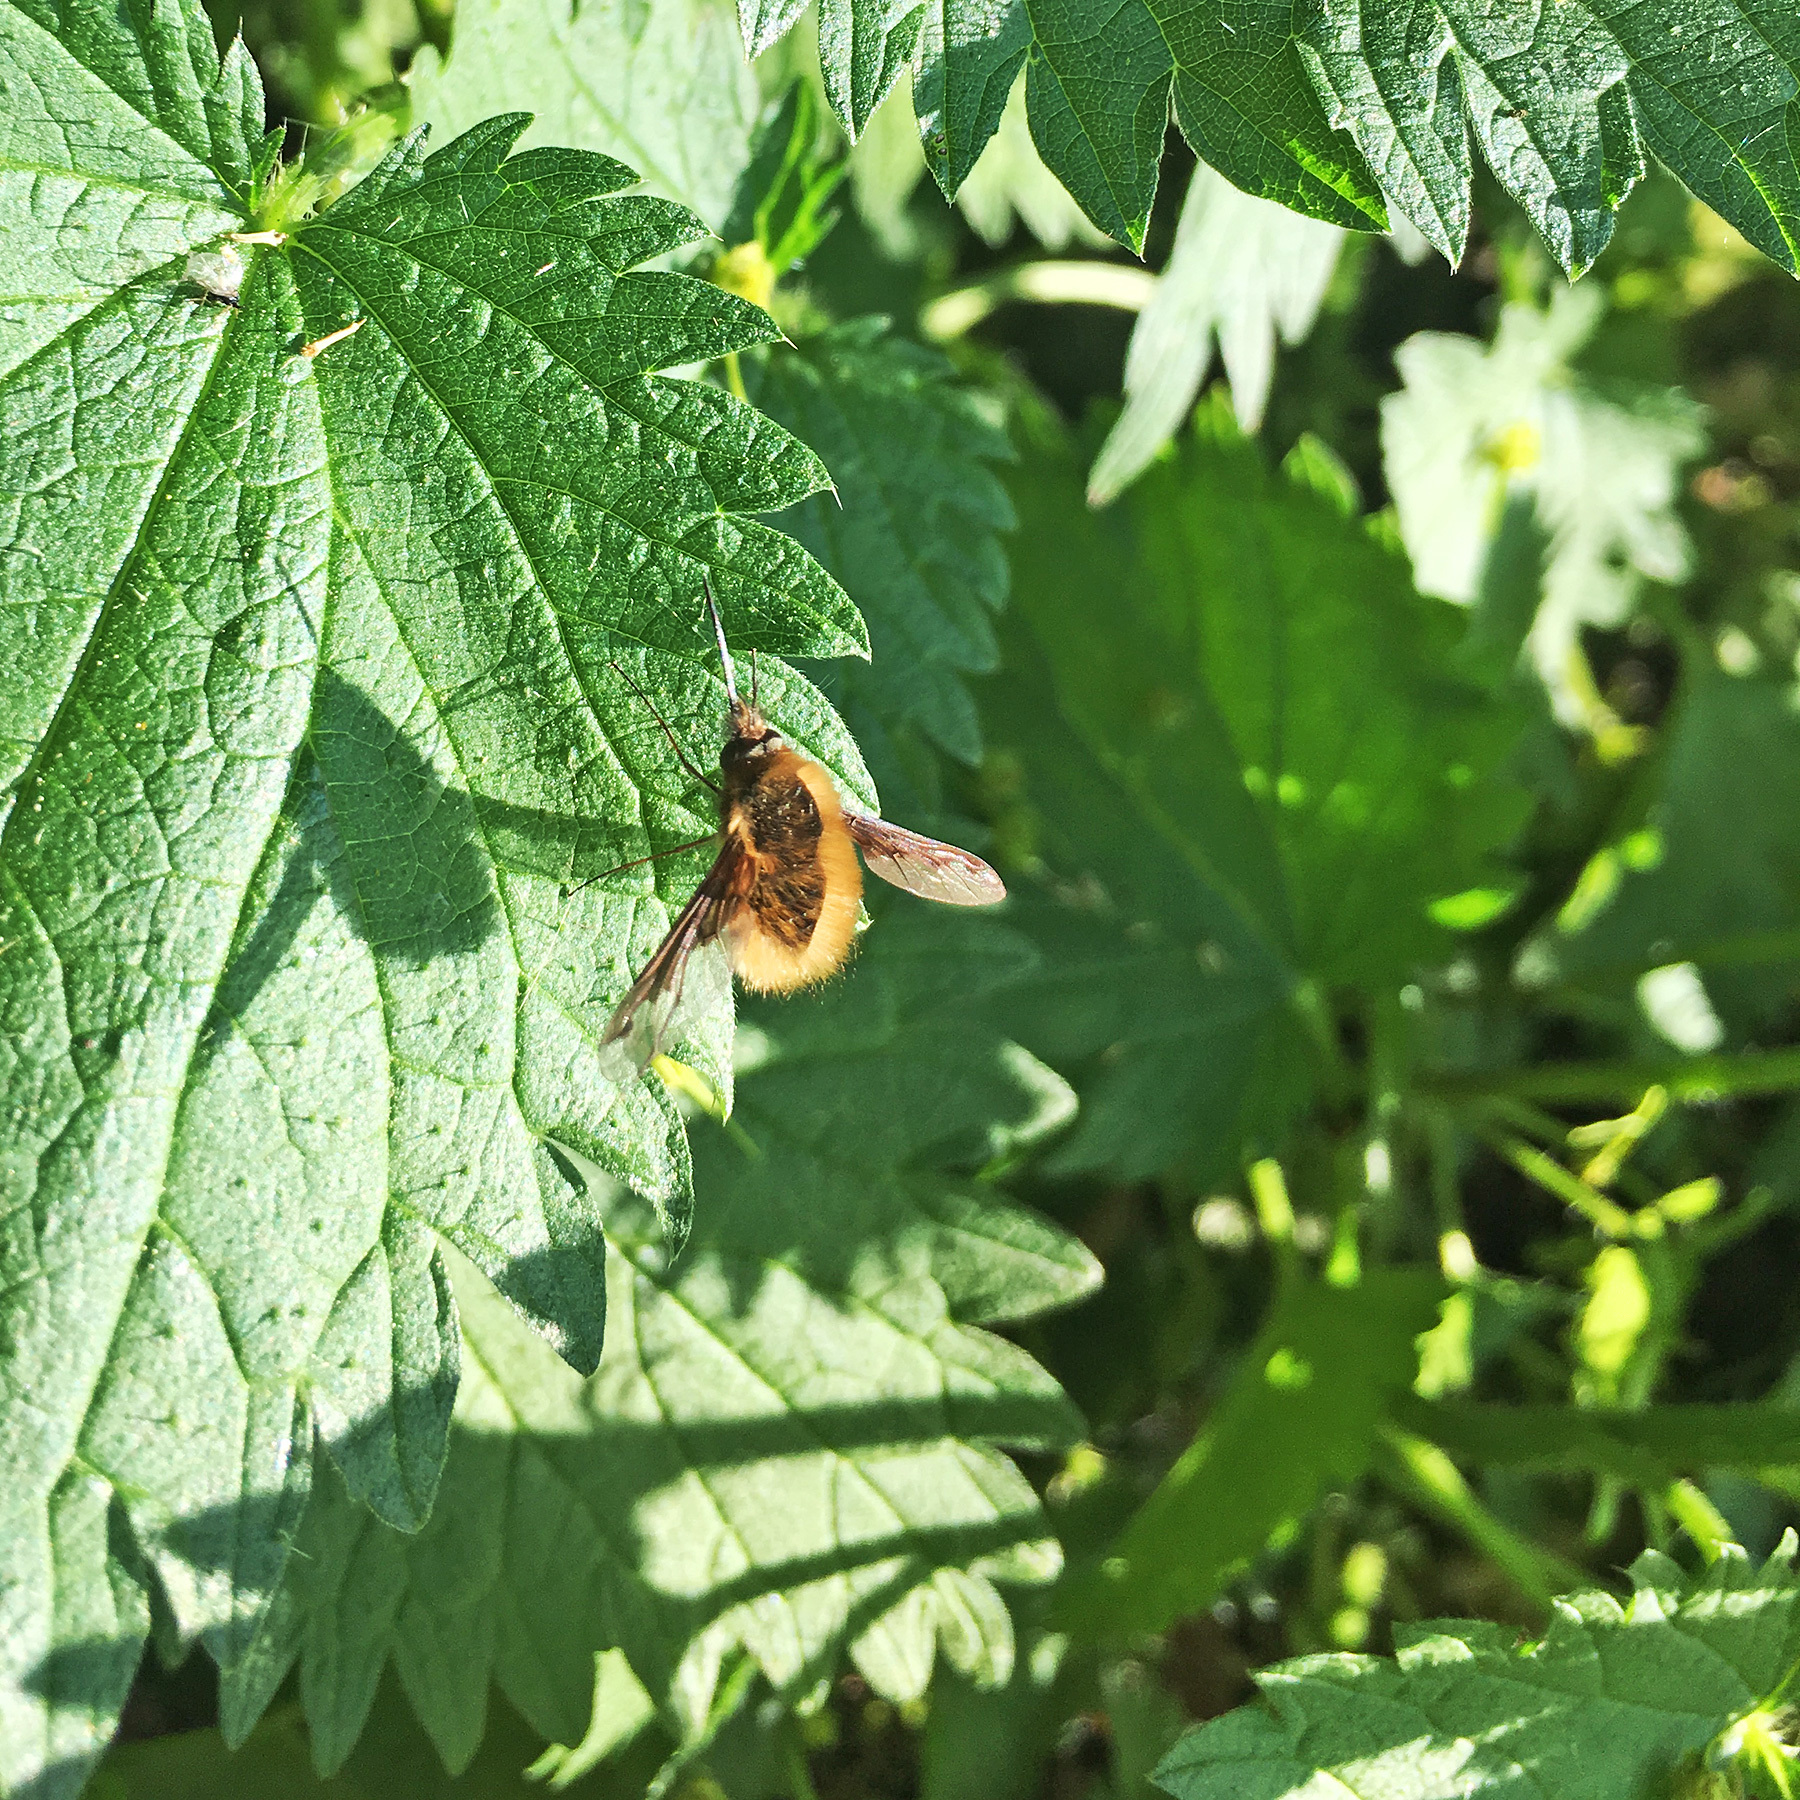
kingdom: Animalia
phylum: Arthropoda
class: Insecta
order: Diptera
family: Bombyliidae
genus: Bombylius
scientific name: Bombylius major
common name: Bee fly
